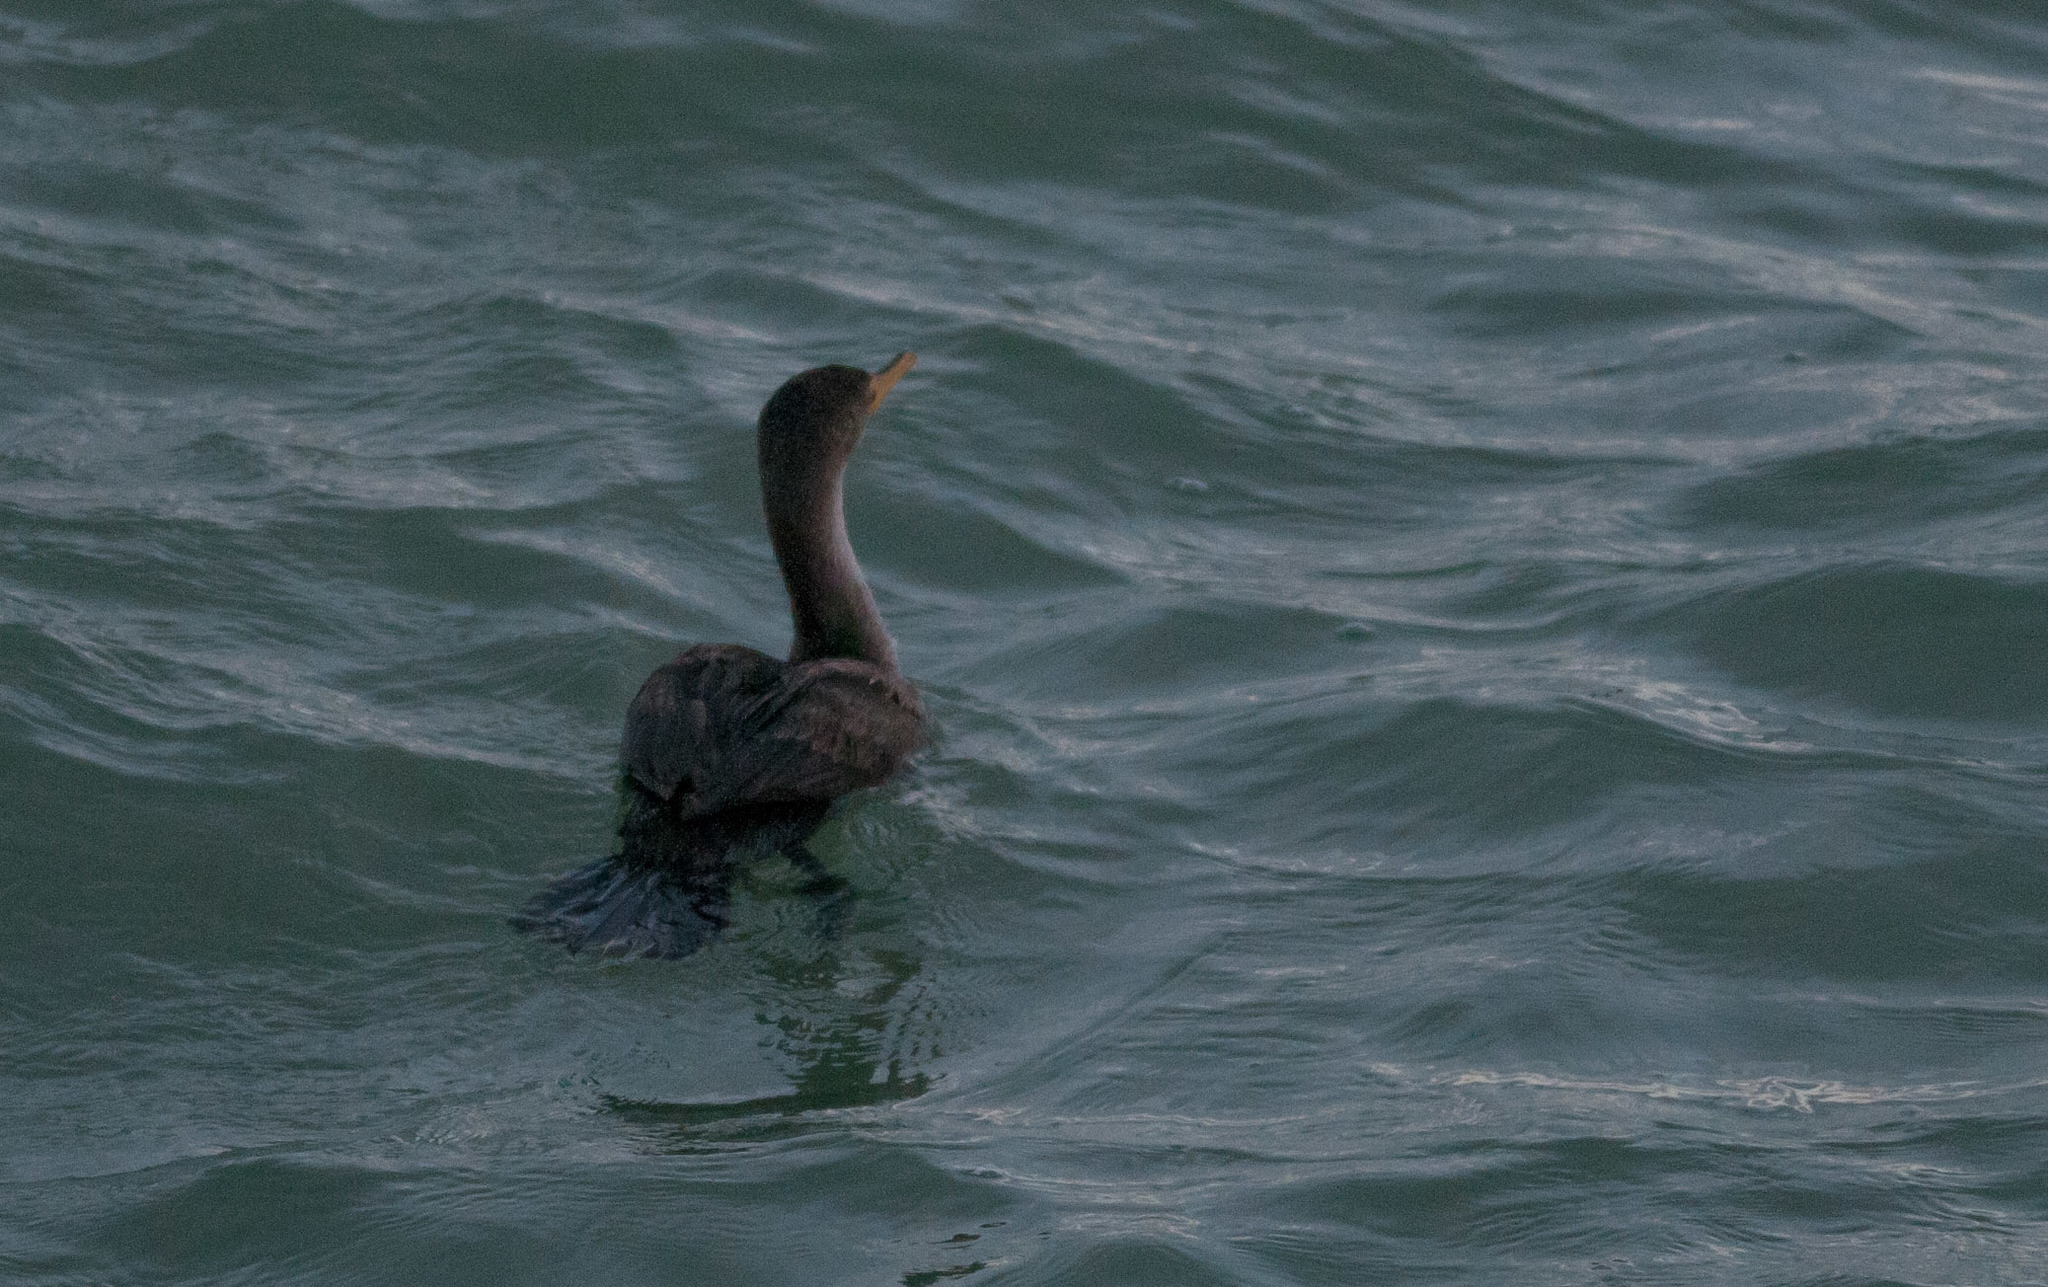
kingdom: Animalia
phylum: Chordata
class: Aves
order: Suliformes
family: Phalacrocoracidae
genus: Phalacrocorax
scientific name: Phalacrocorax auritus
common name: Double-crested cormorant
